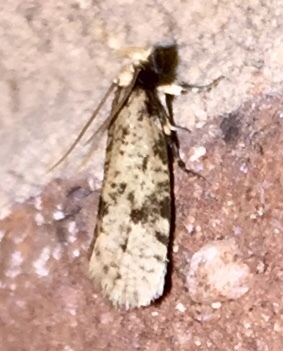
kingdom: Animalia
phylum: Arthropoda
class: Insecta
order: Lepidoptera
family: Tineidae
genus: Amydria
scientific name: Amydria effrentella
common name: Brown-blotched amydria moth
